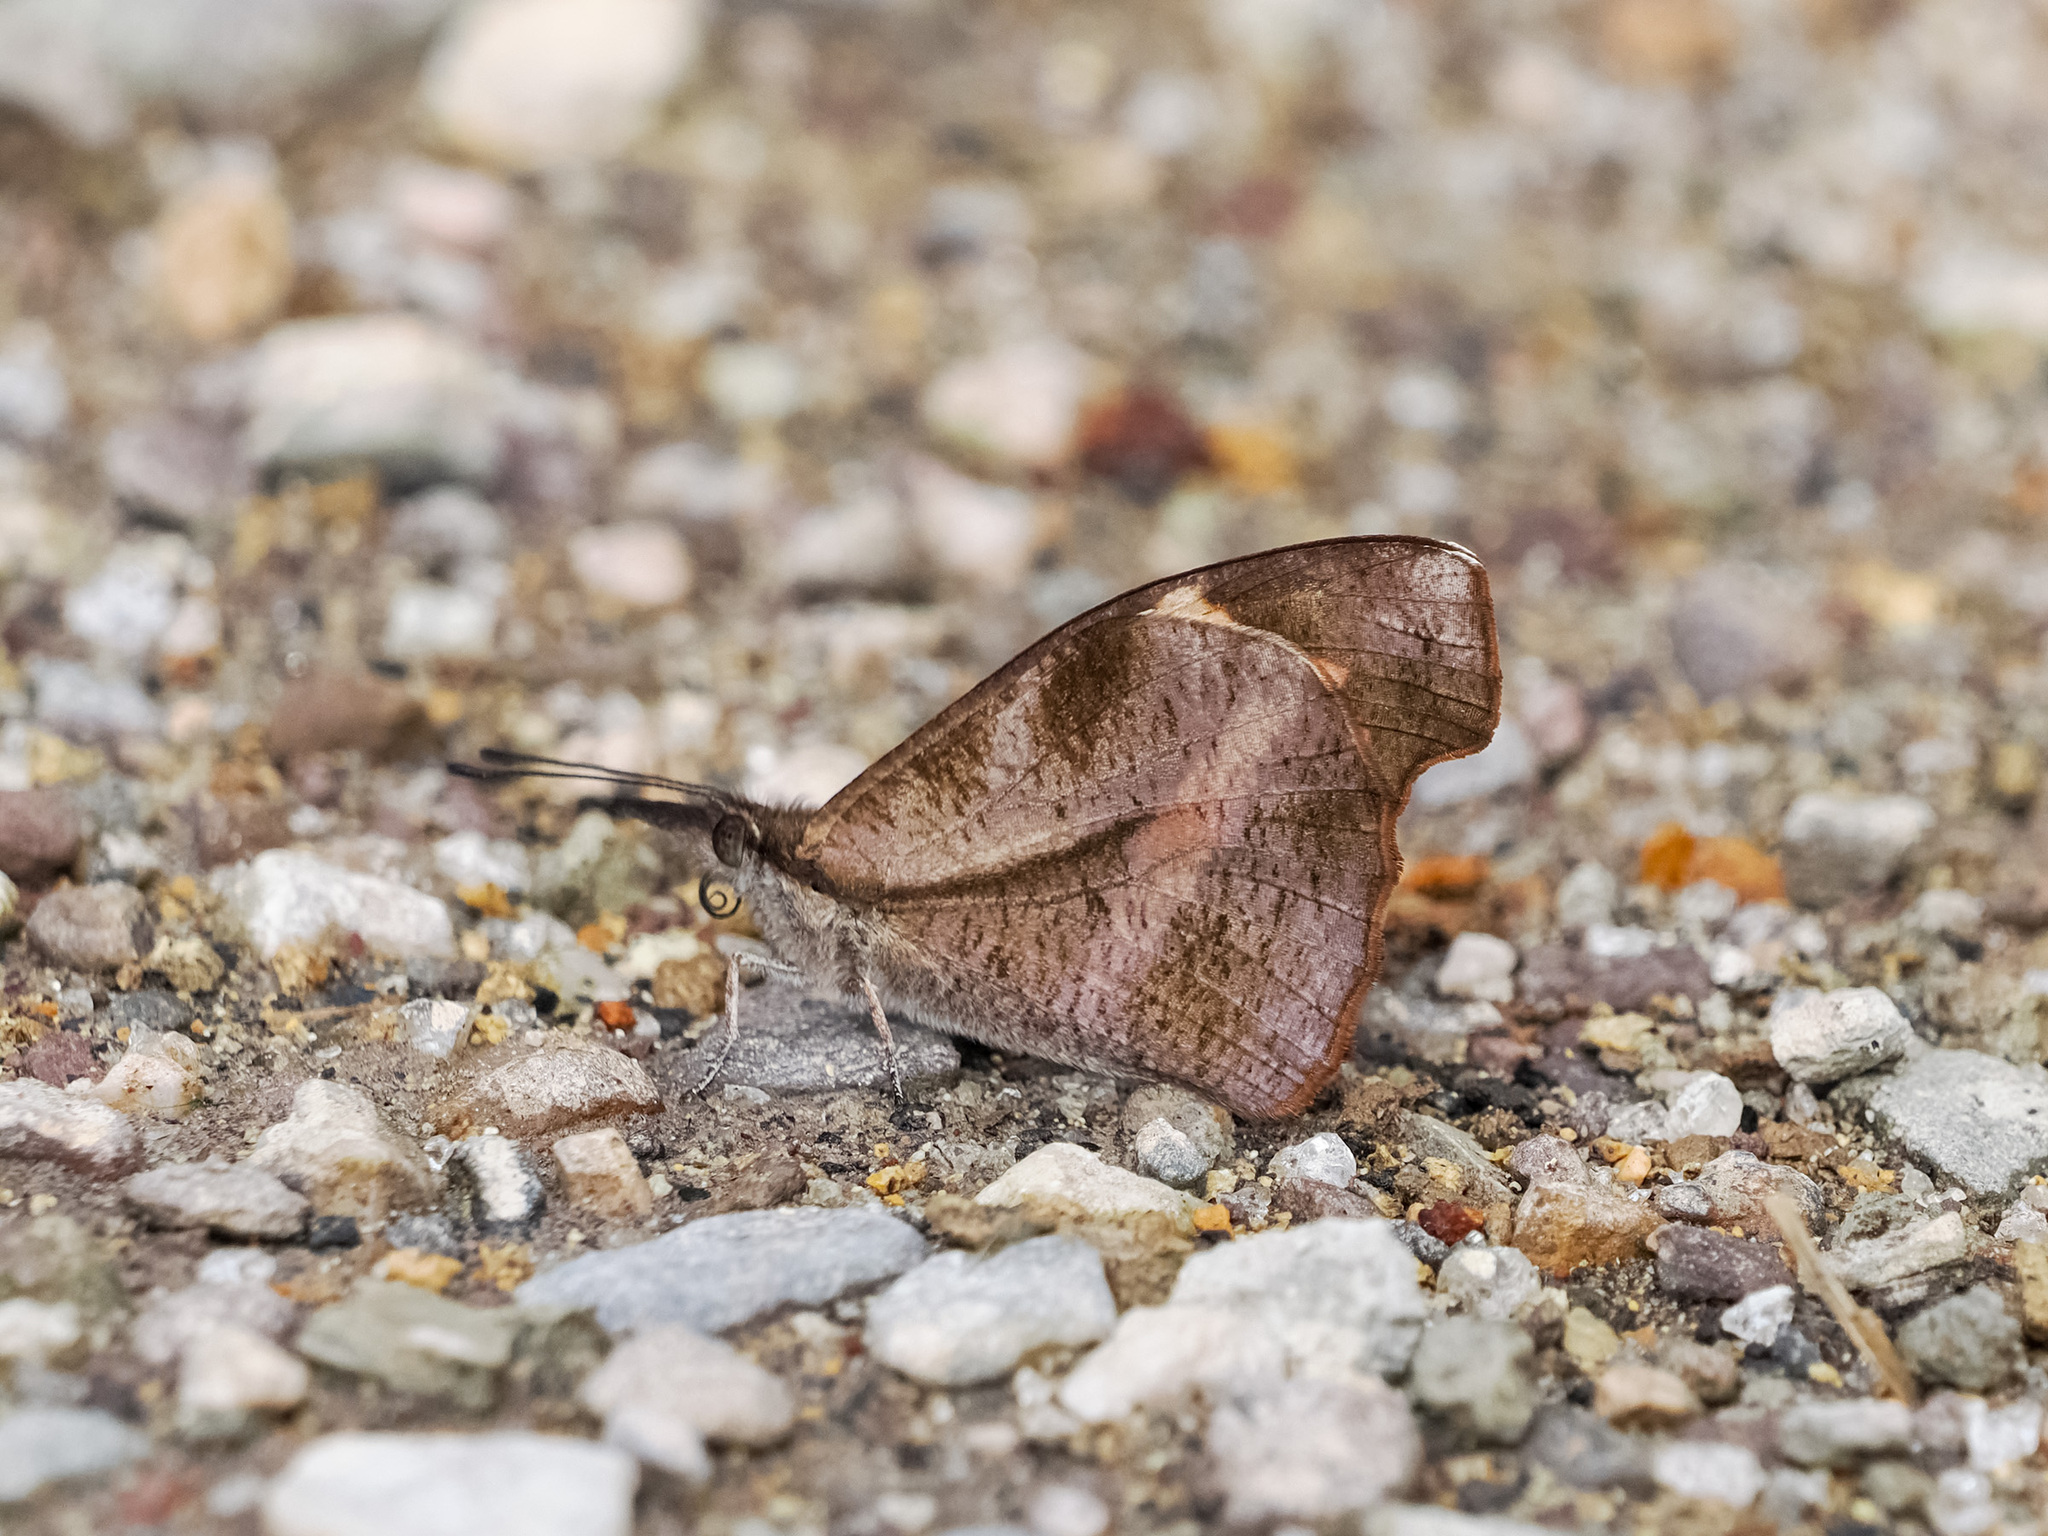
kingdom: Animalia
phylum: Arthropoda
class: Insecta
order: Lepidoptera
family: Nymphalidae
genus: Libythea
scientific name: Libythea myrrha
